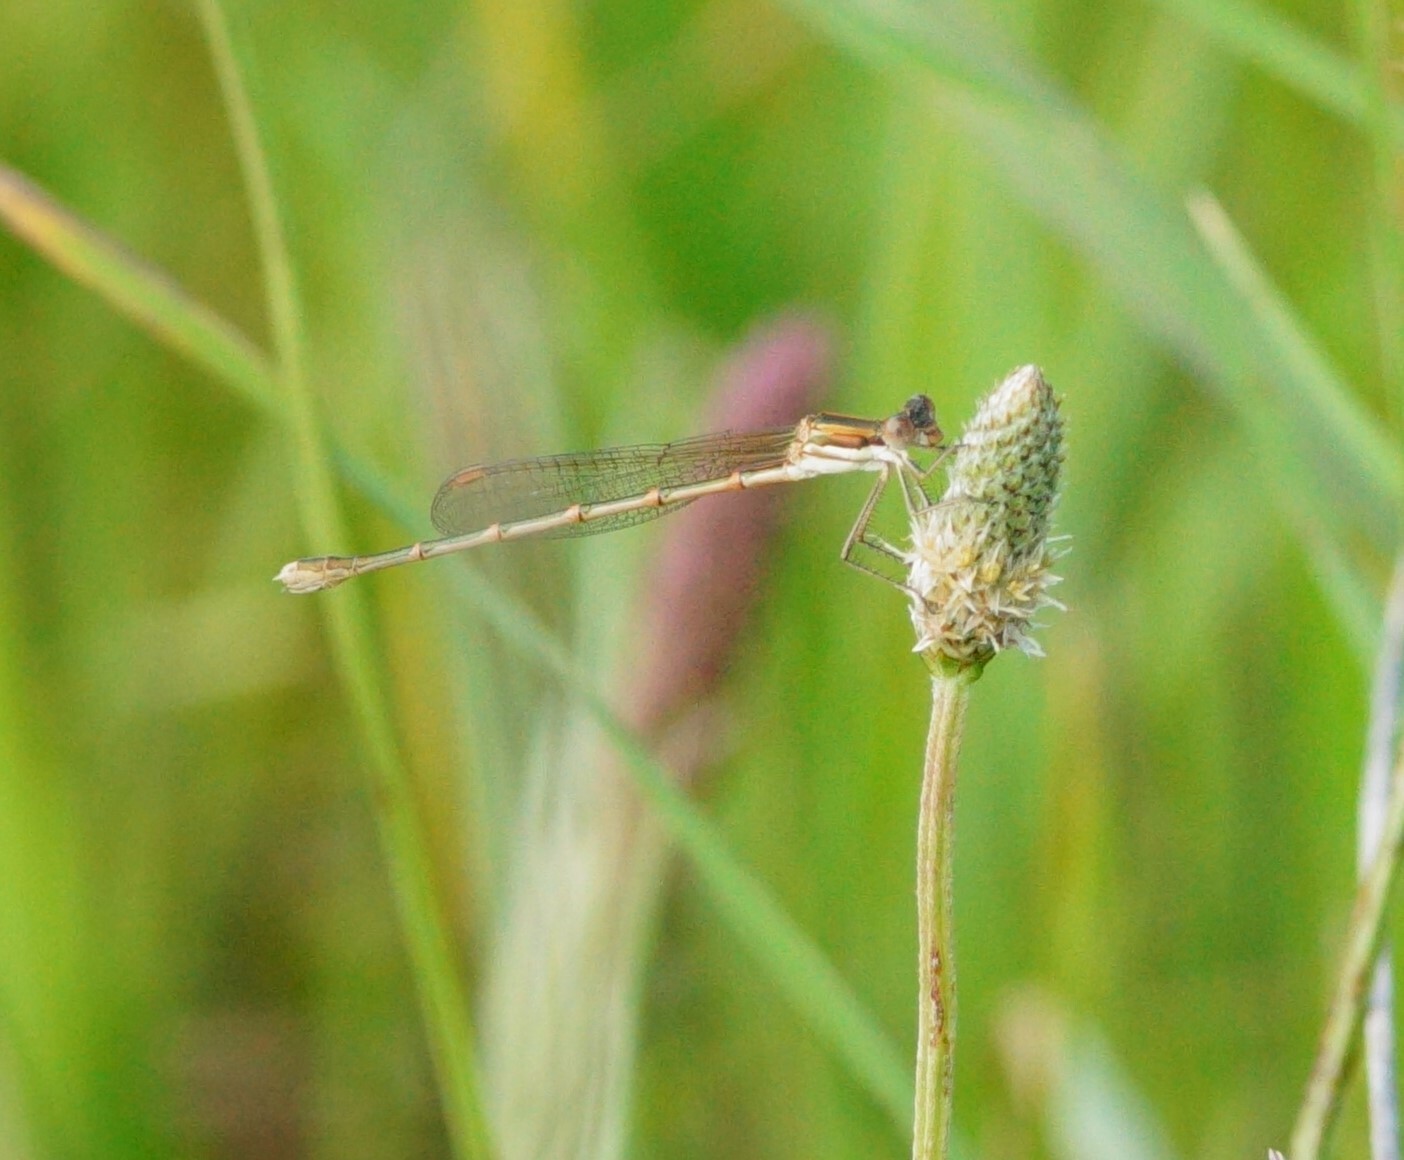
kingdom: Animalia
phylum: Arthropoda
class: Insecta
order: Odonata
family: Lestidae
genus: Austrolestes
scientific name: Austrolestes analis
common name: Slender ringtail
